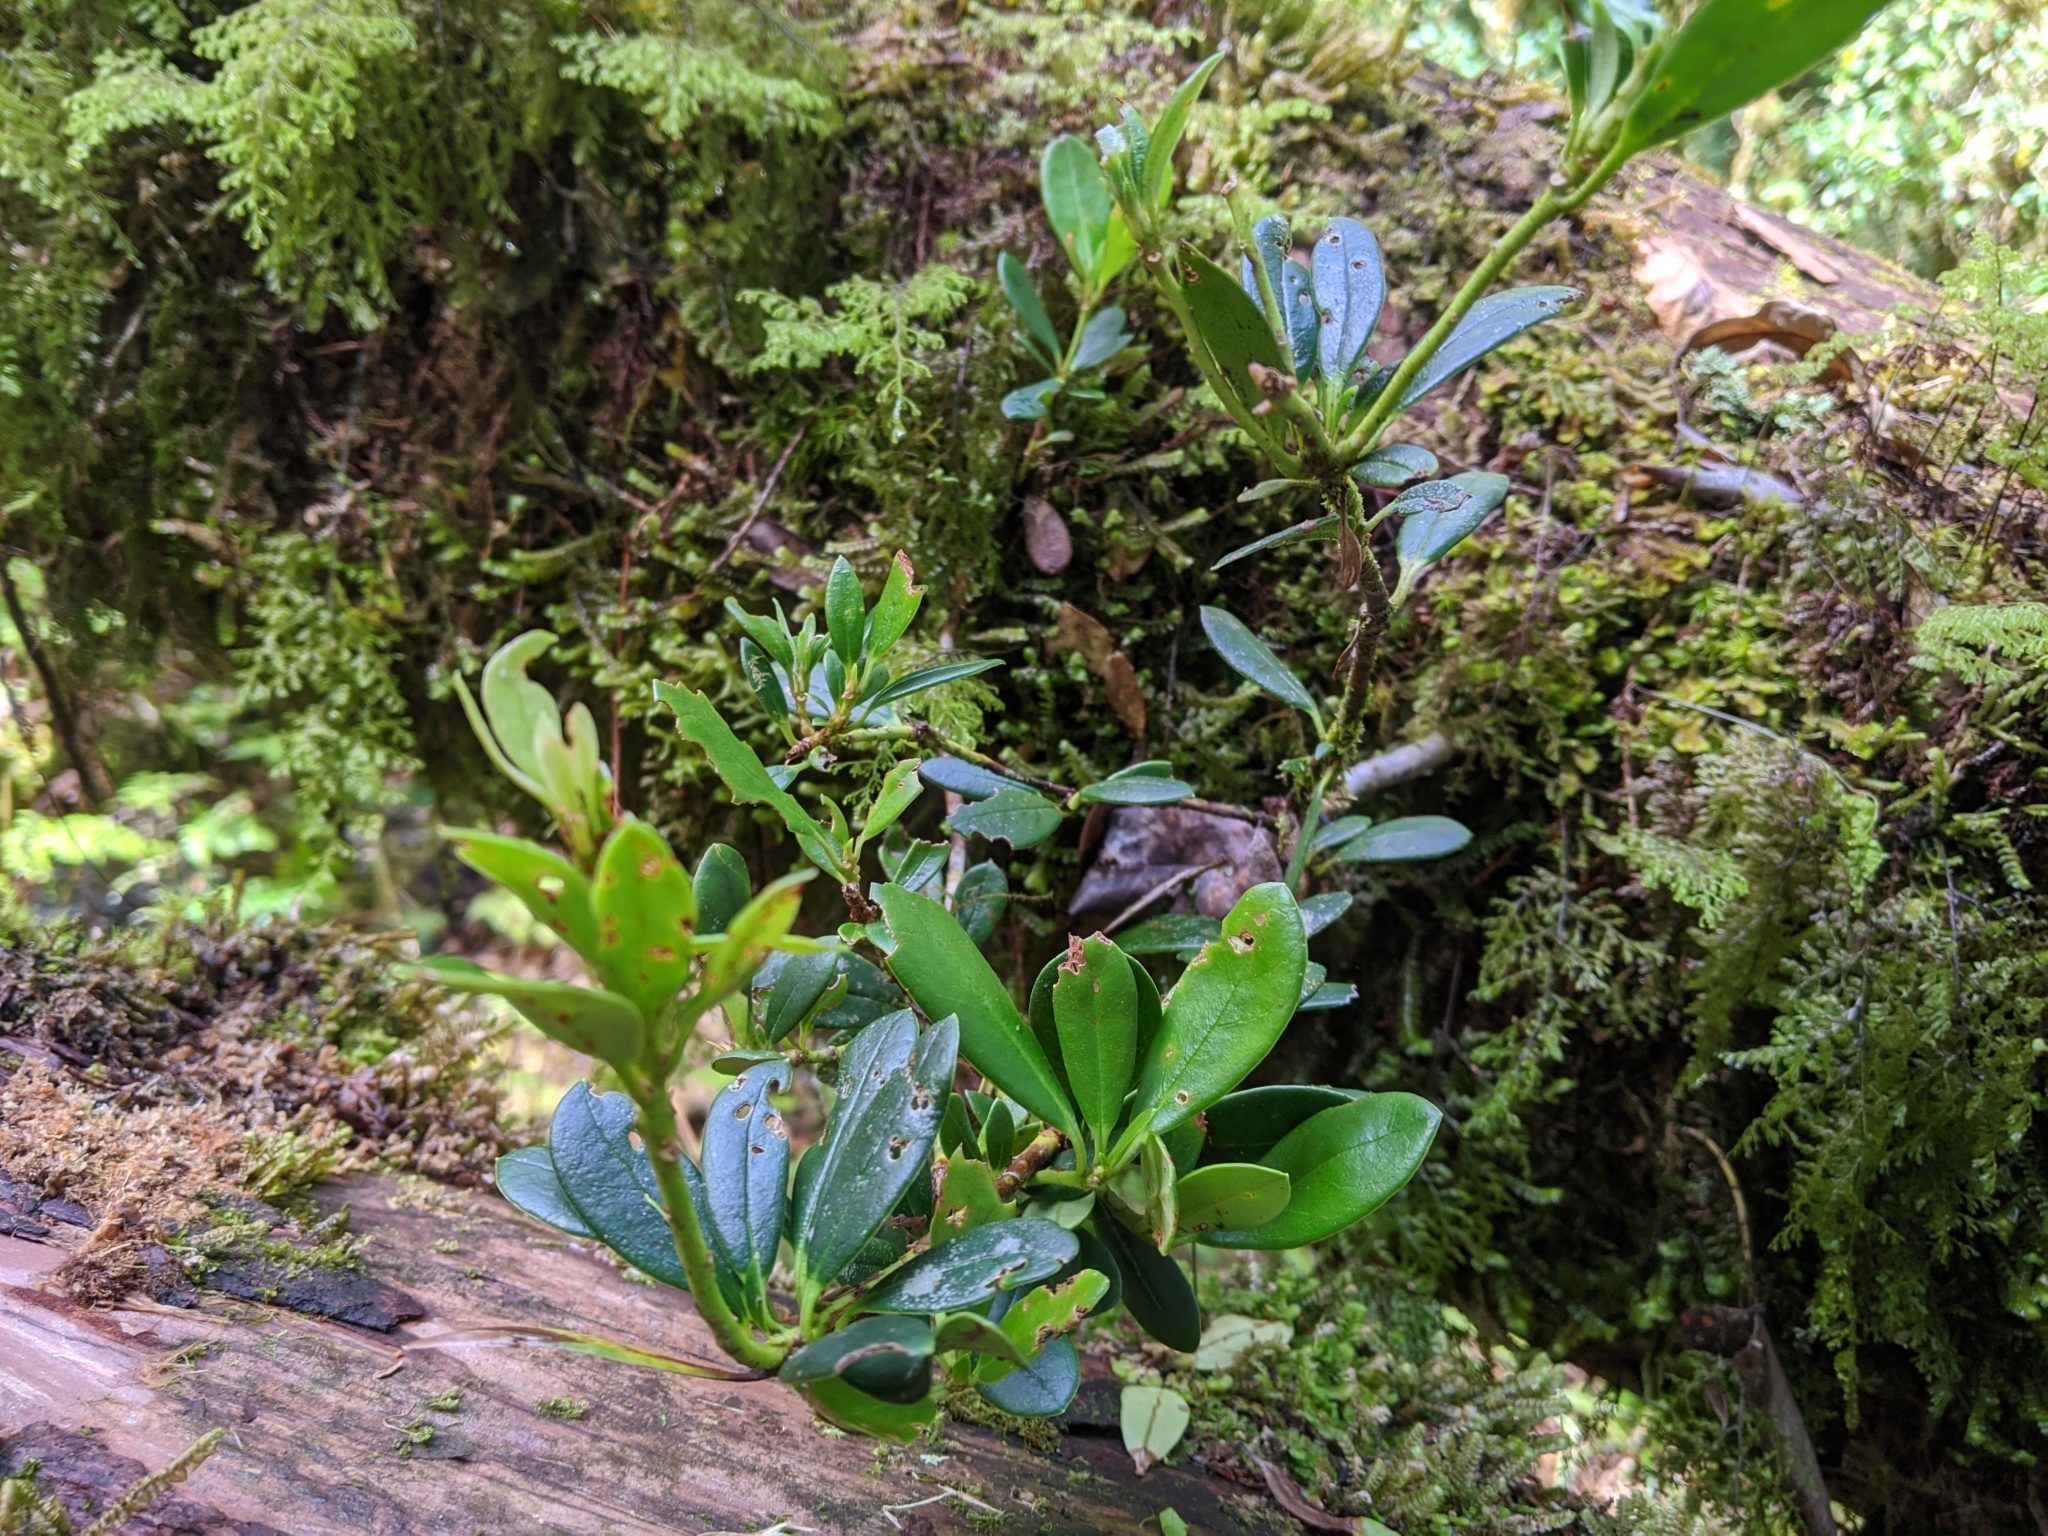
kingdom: Plantae
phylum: Tracheophyta
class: Magnoliopsida
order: Ericales
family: Ericaceae
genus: Rhododendron
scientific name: Rhododendron kawakamii
